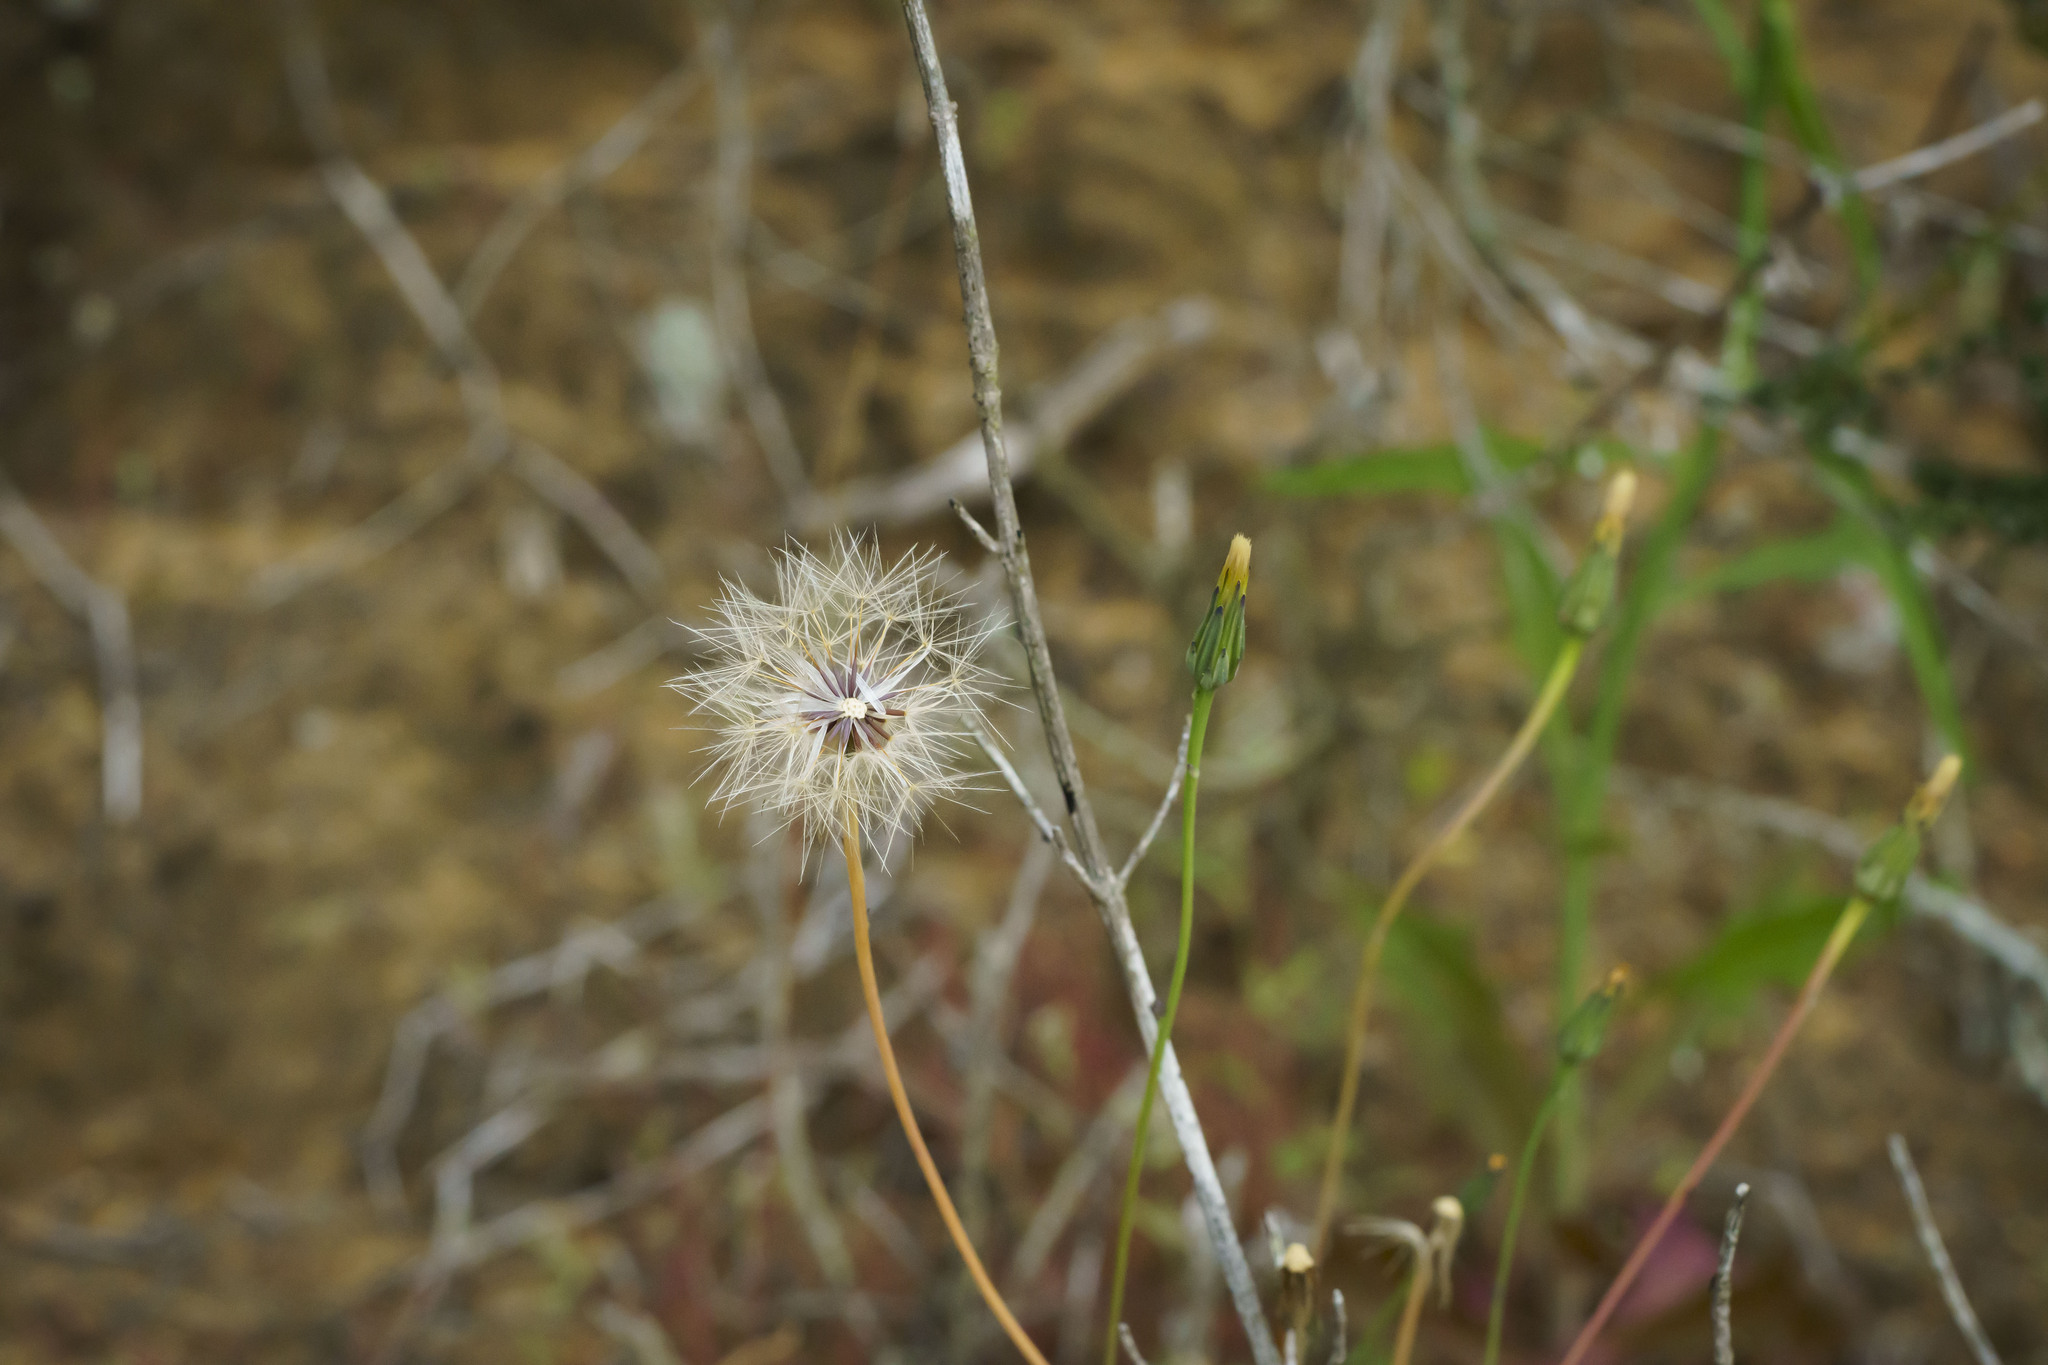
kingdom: Plantae
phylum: Tracheophyta
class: Magnoliopsida
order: Asterales
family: Asteraceae
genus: Rafinesquia
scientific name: Rafinesquia californica
